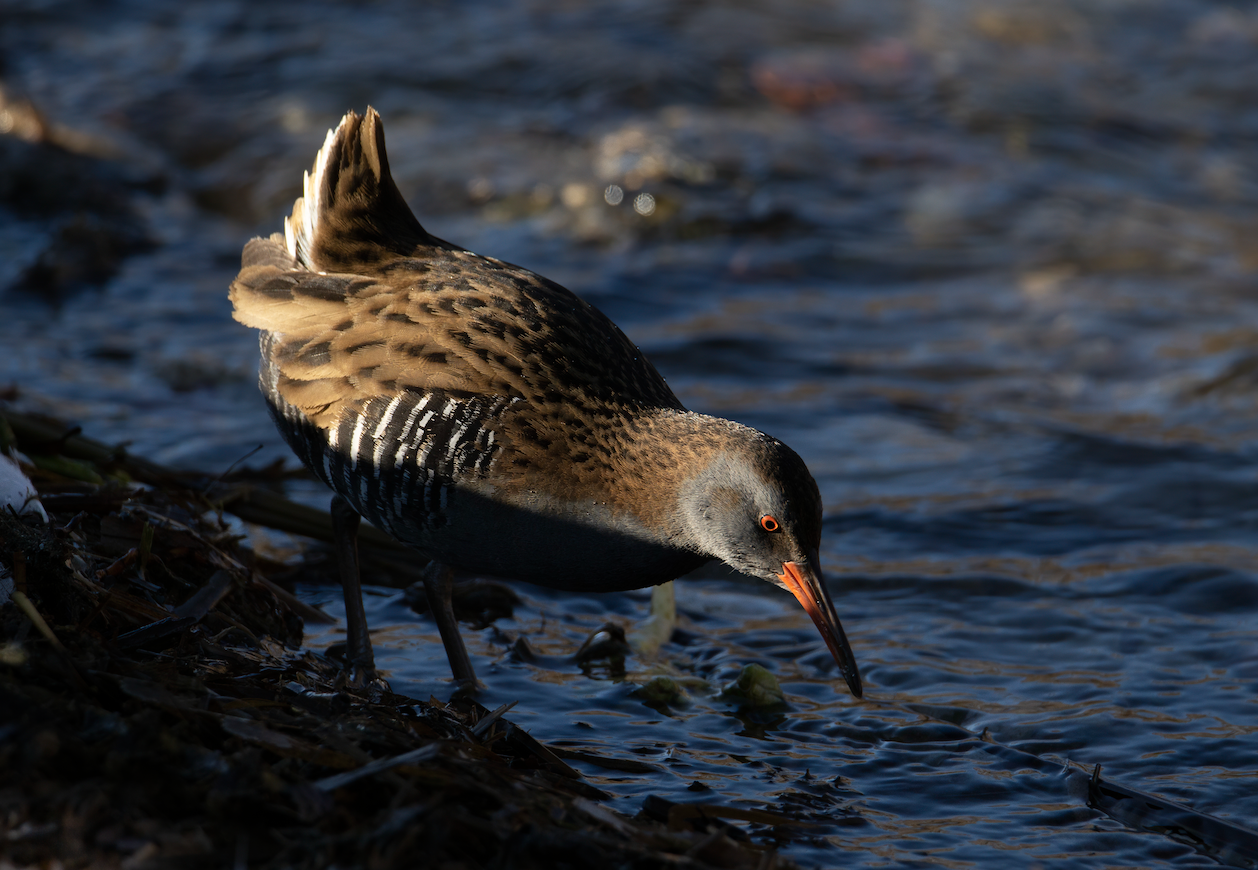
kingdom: Animalia
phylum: Chordata
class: Aves
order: Gruiformes
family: Rallidae
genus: Rallus
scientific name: Rallus aquaticus
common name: Water rail
